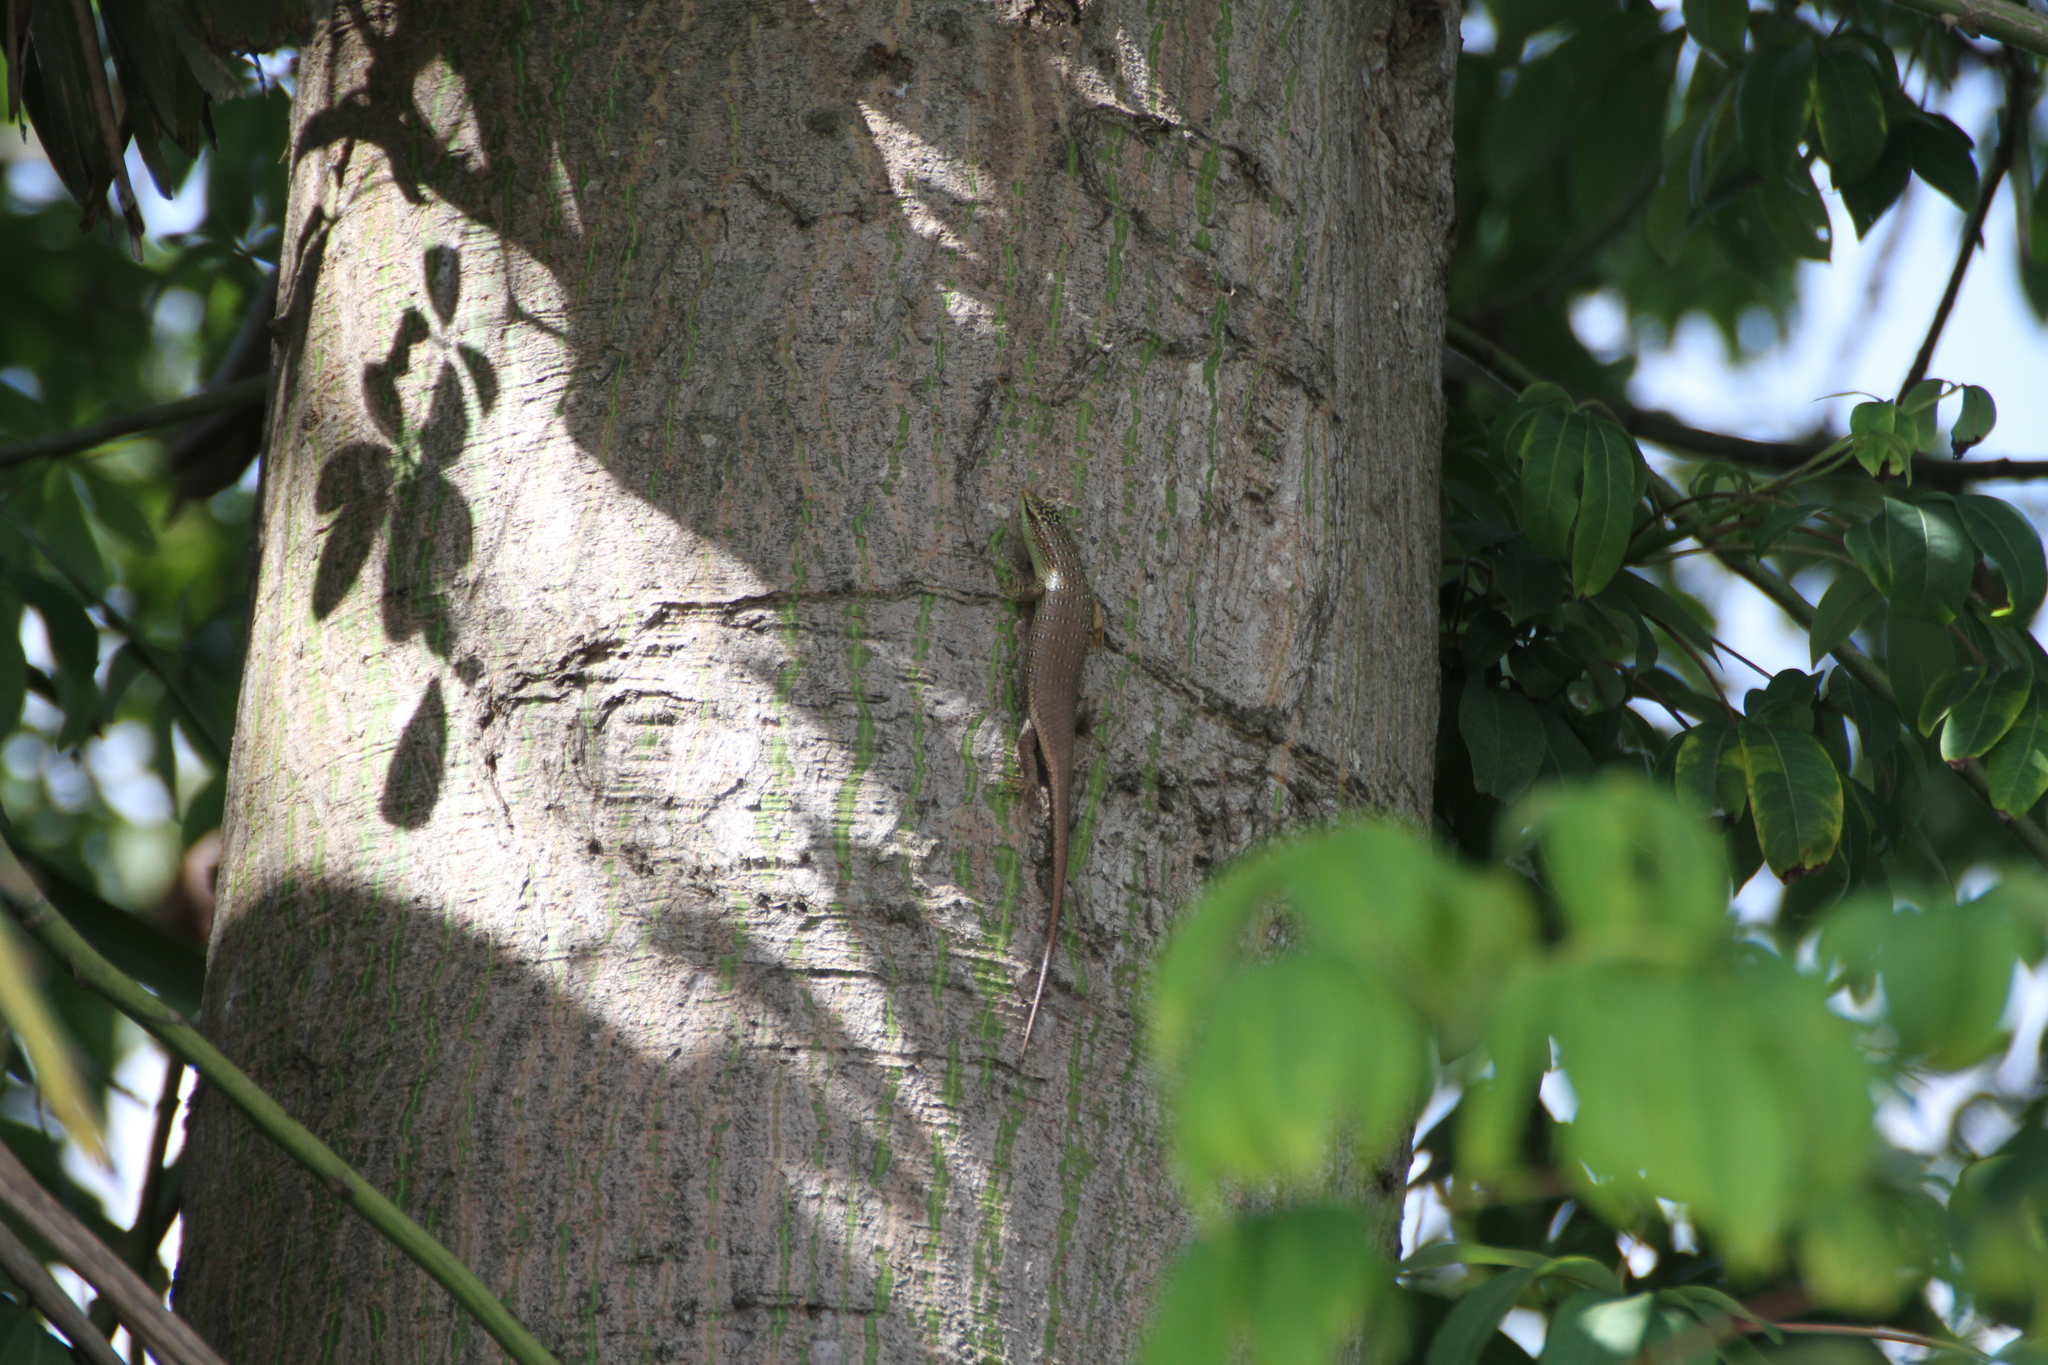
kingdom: Animalia
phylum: Chordata
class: Squamata
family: Scincidae
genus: Dasia
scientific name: Dasia olivacea
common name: Olive dasia
